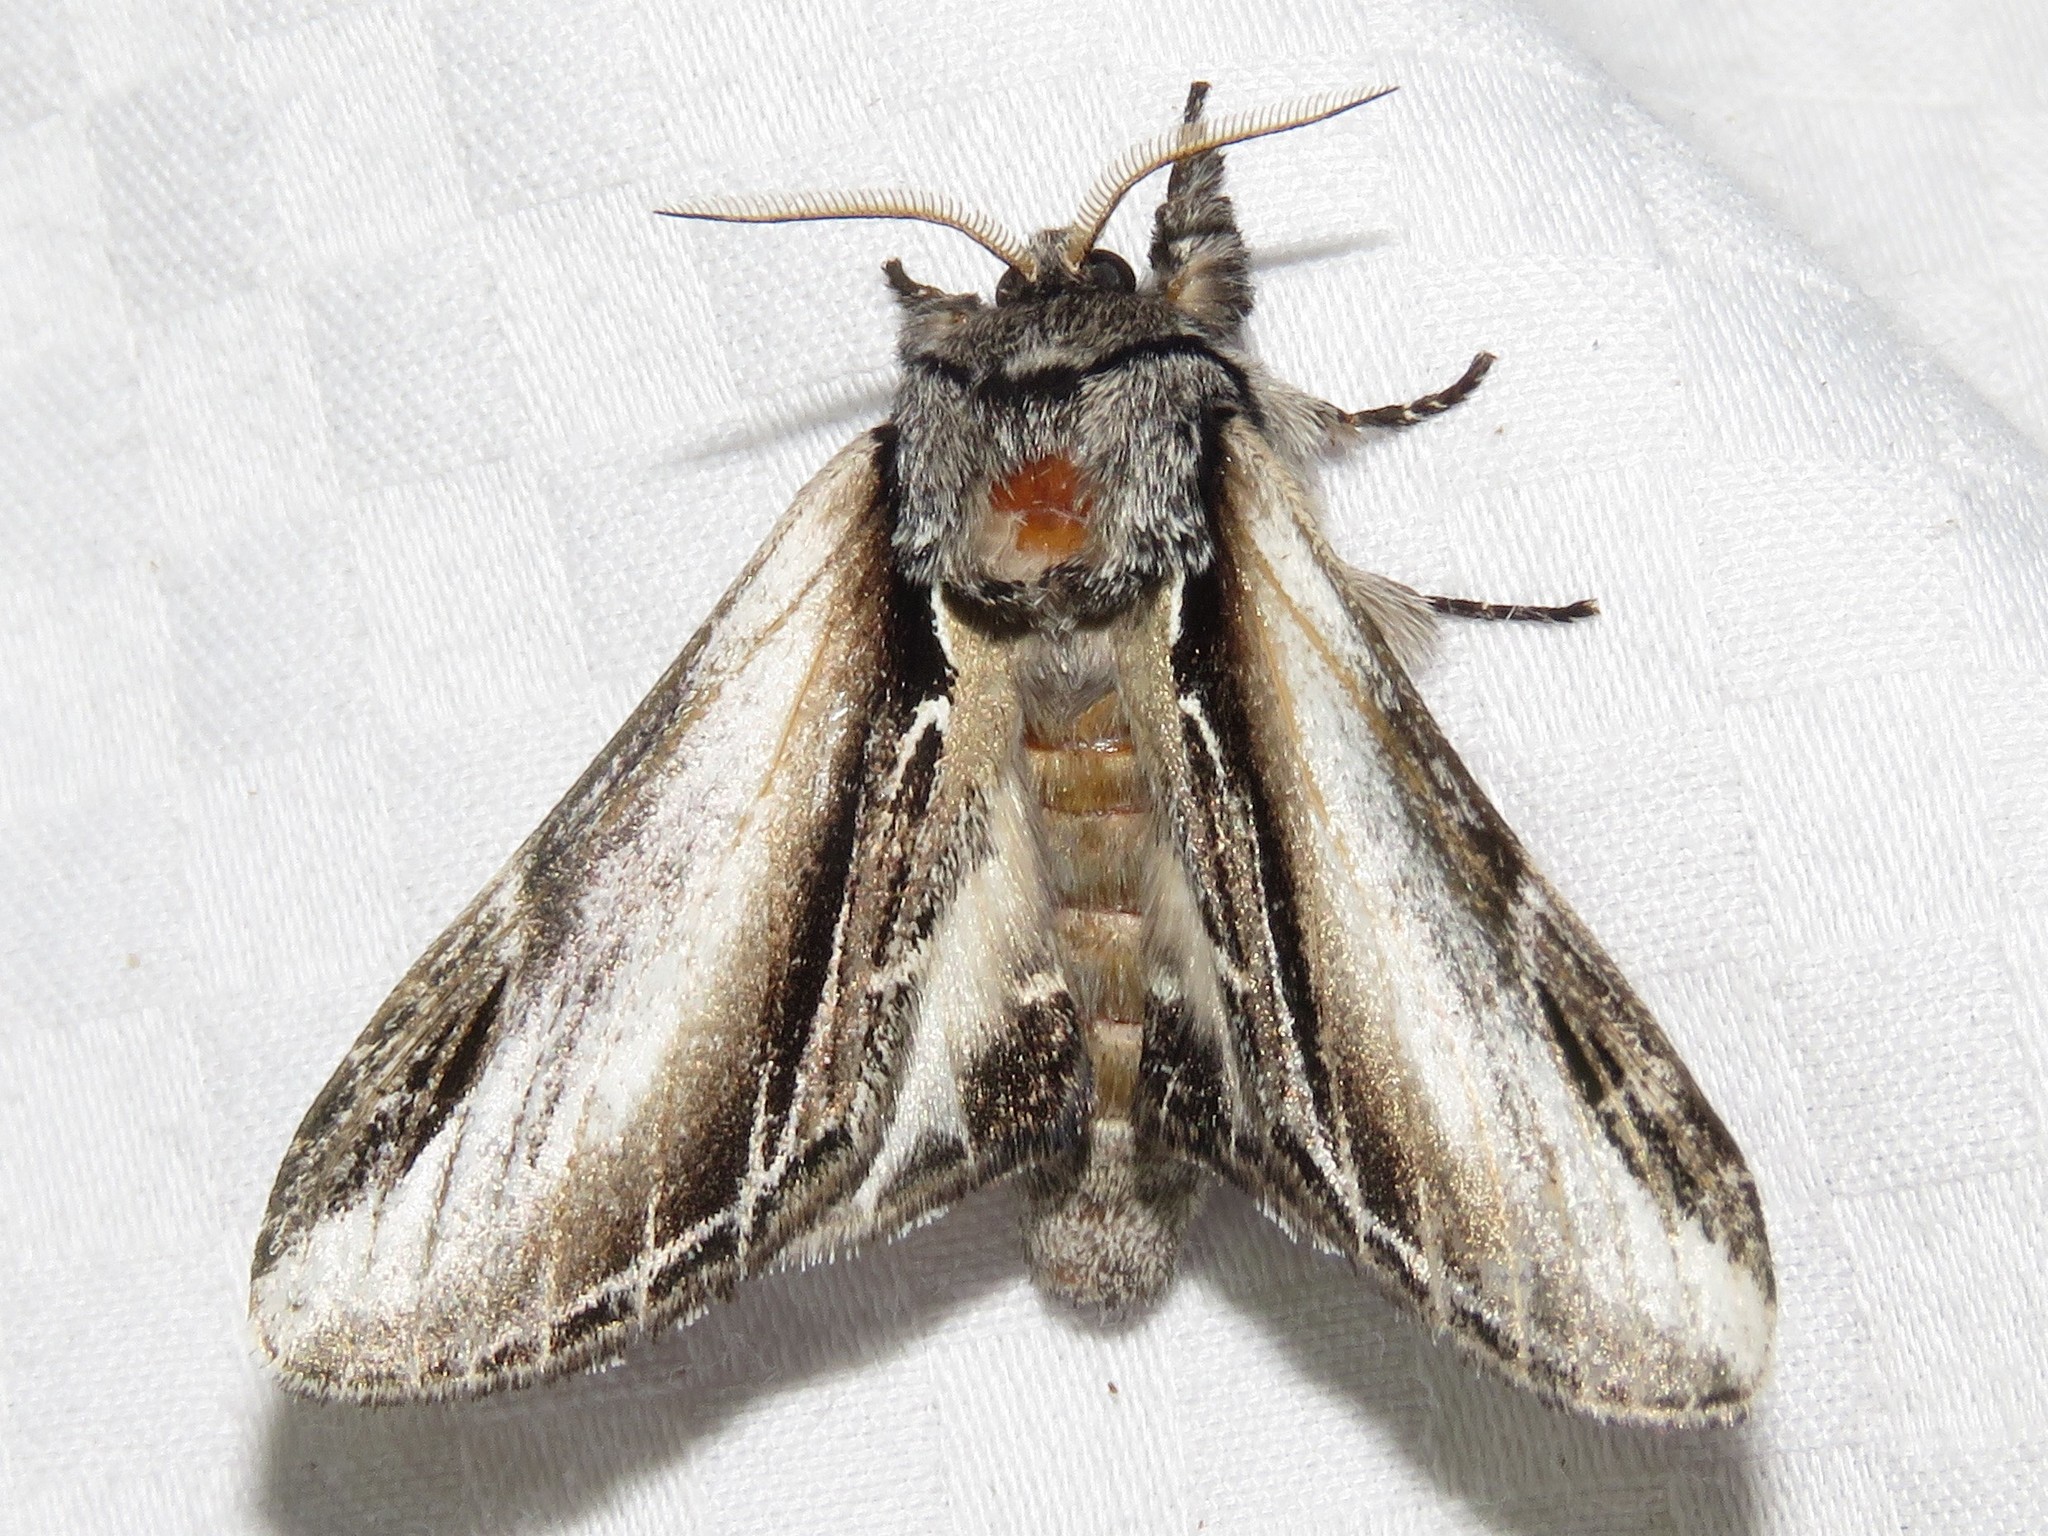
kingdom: Animalia
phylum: Arthropoda
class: Insecta
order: Lepidoptera
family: Notodontidae
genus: Pheosia
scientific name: Pheosia rimosa
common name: Black-rimmed prominent
